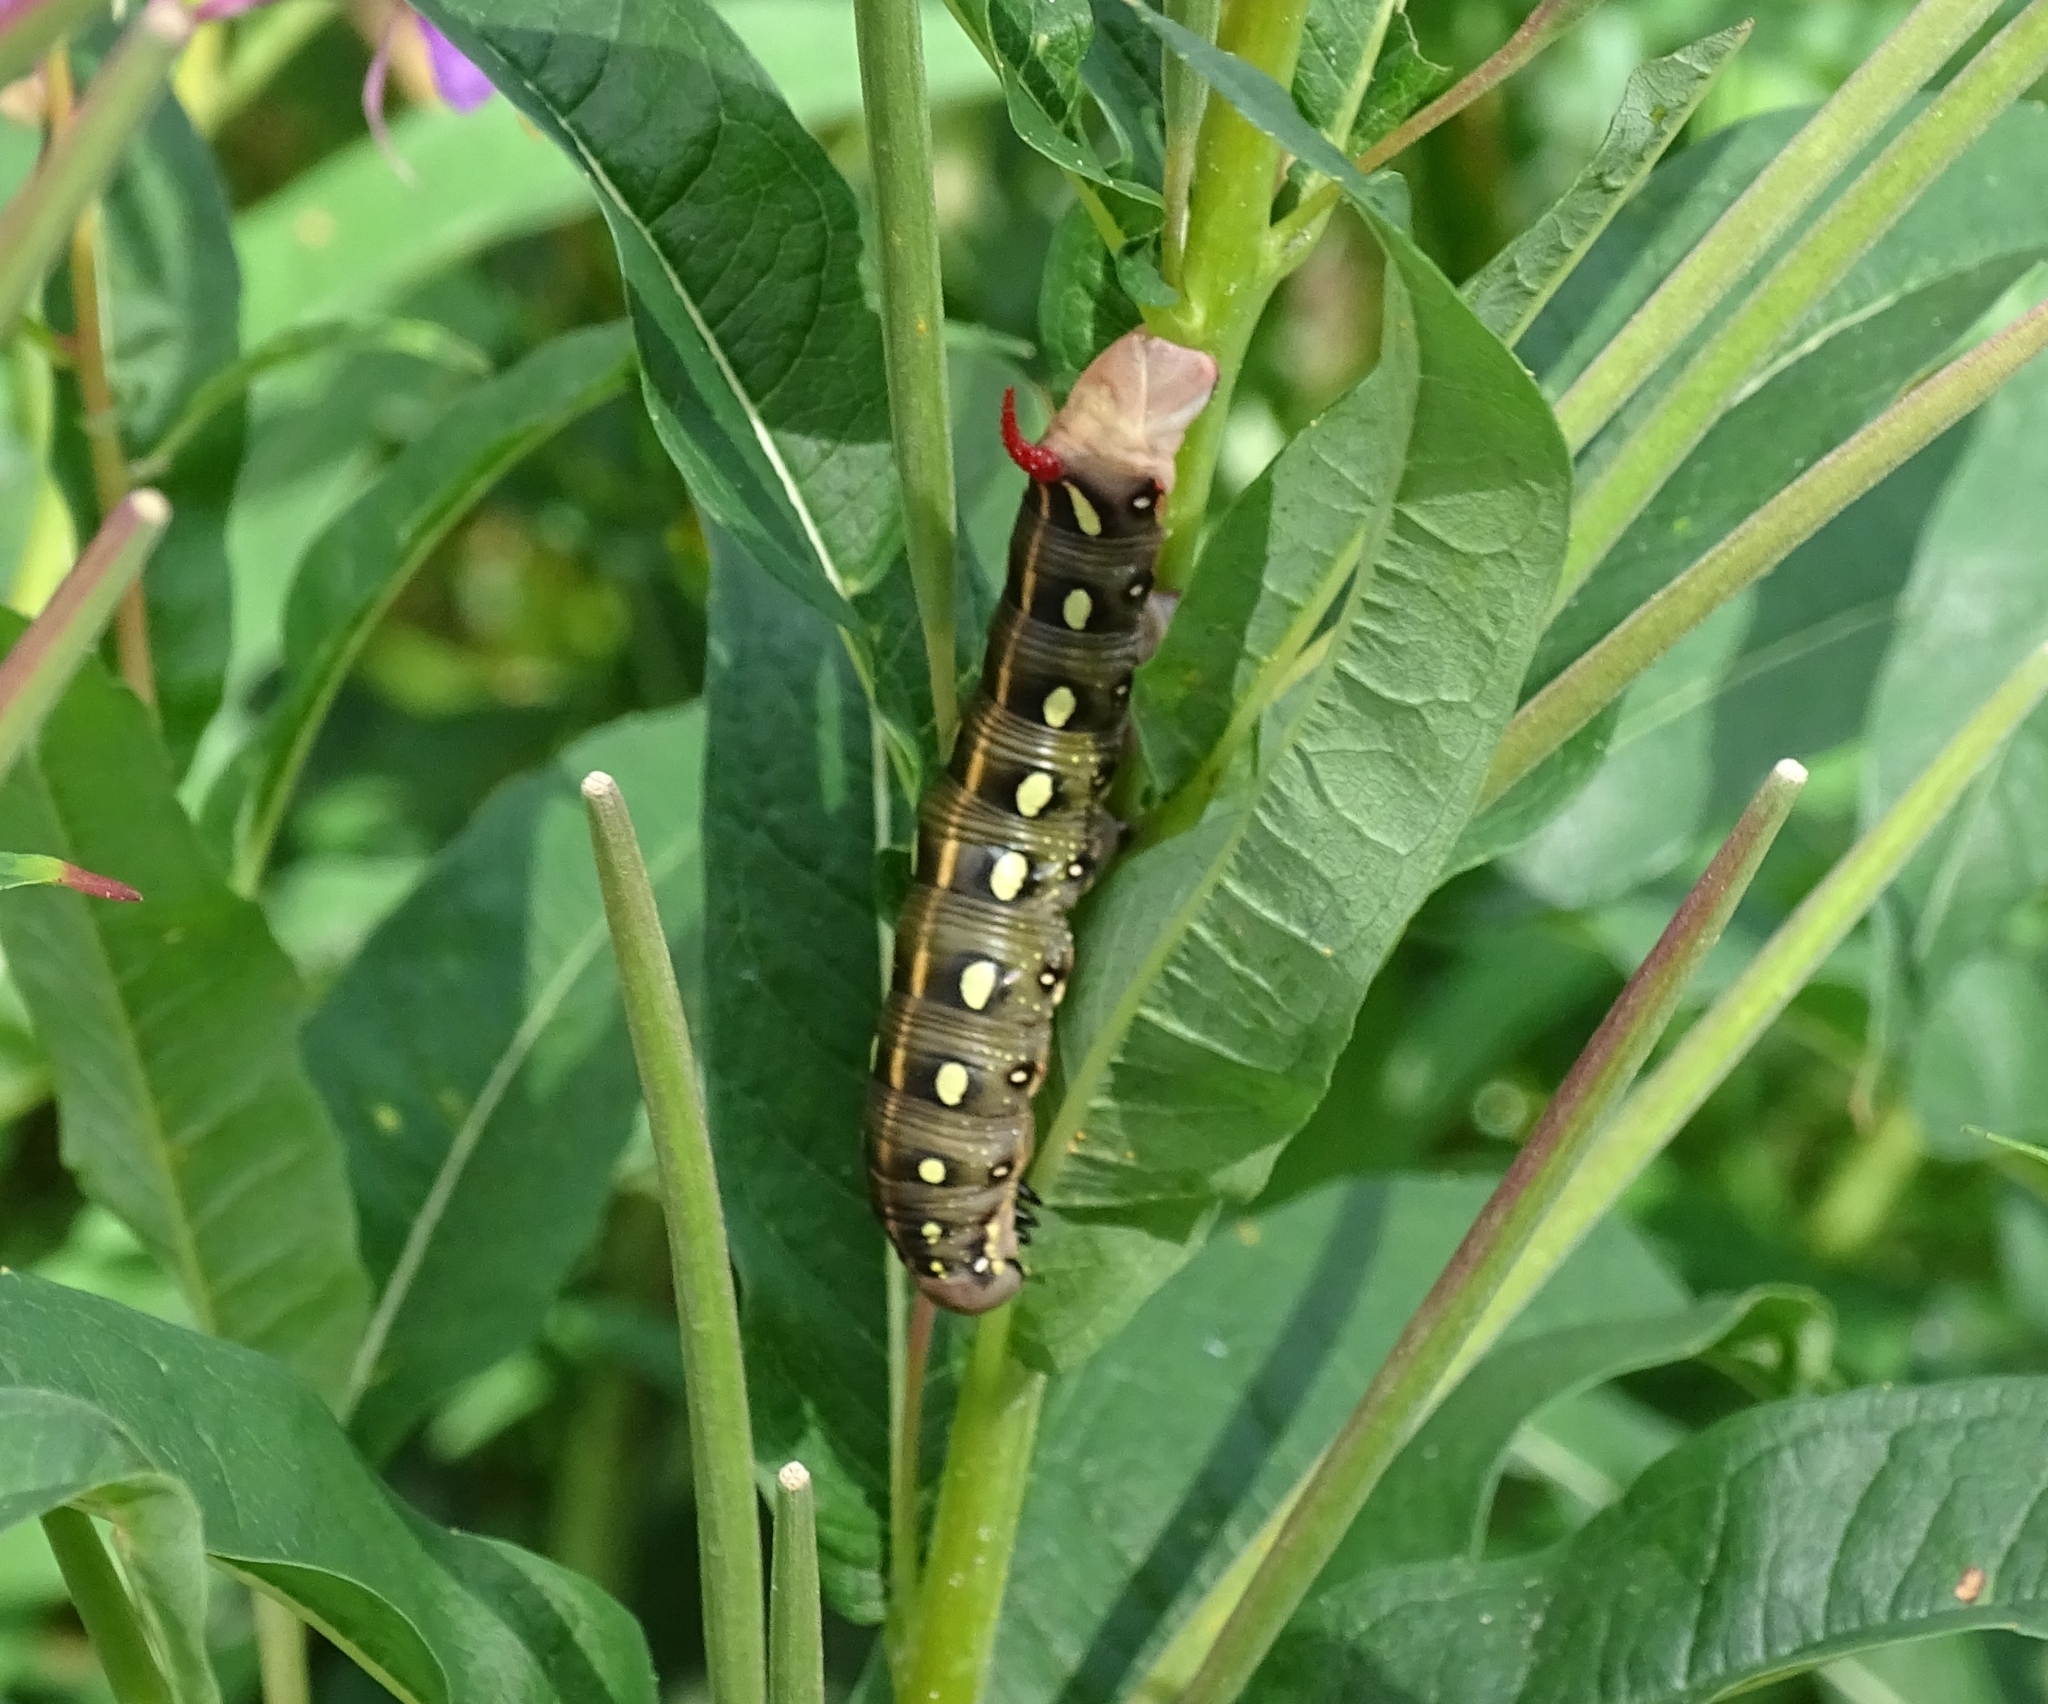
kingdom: Animalia
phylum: Arthropoda
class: Insecta
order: Lepidoptera
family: Sphingidae
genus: Hyles
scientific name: Hyles gallii
